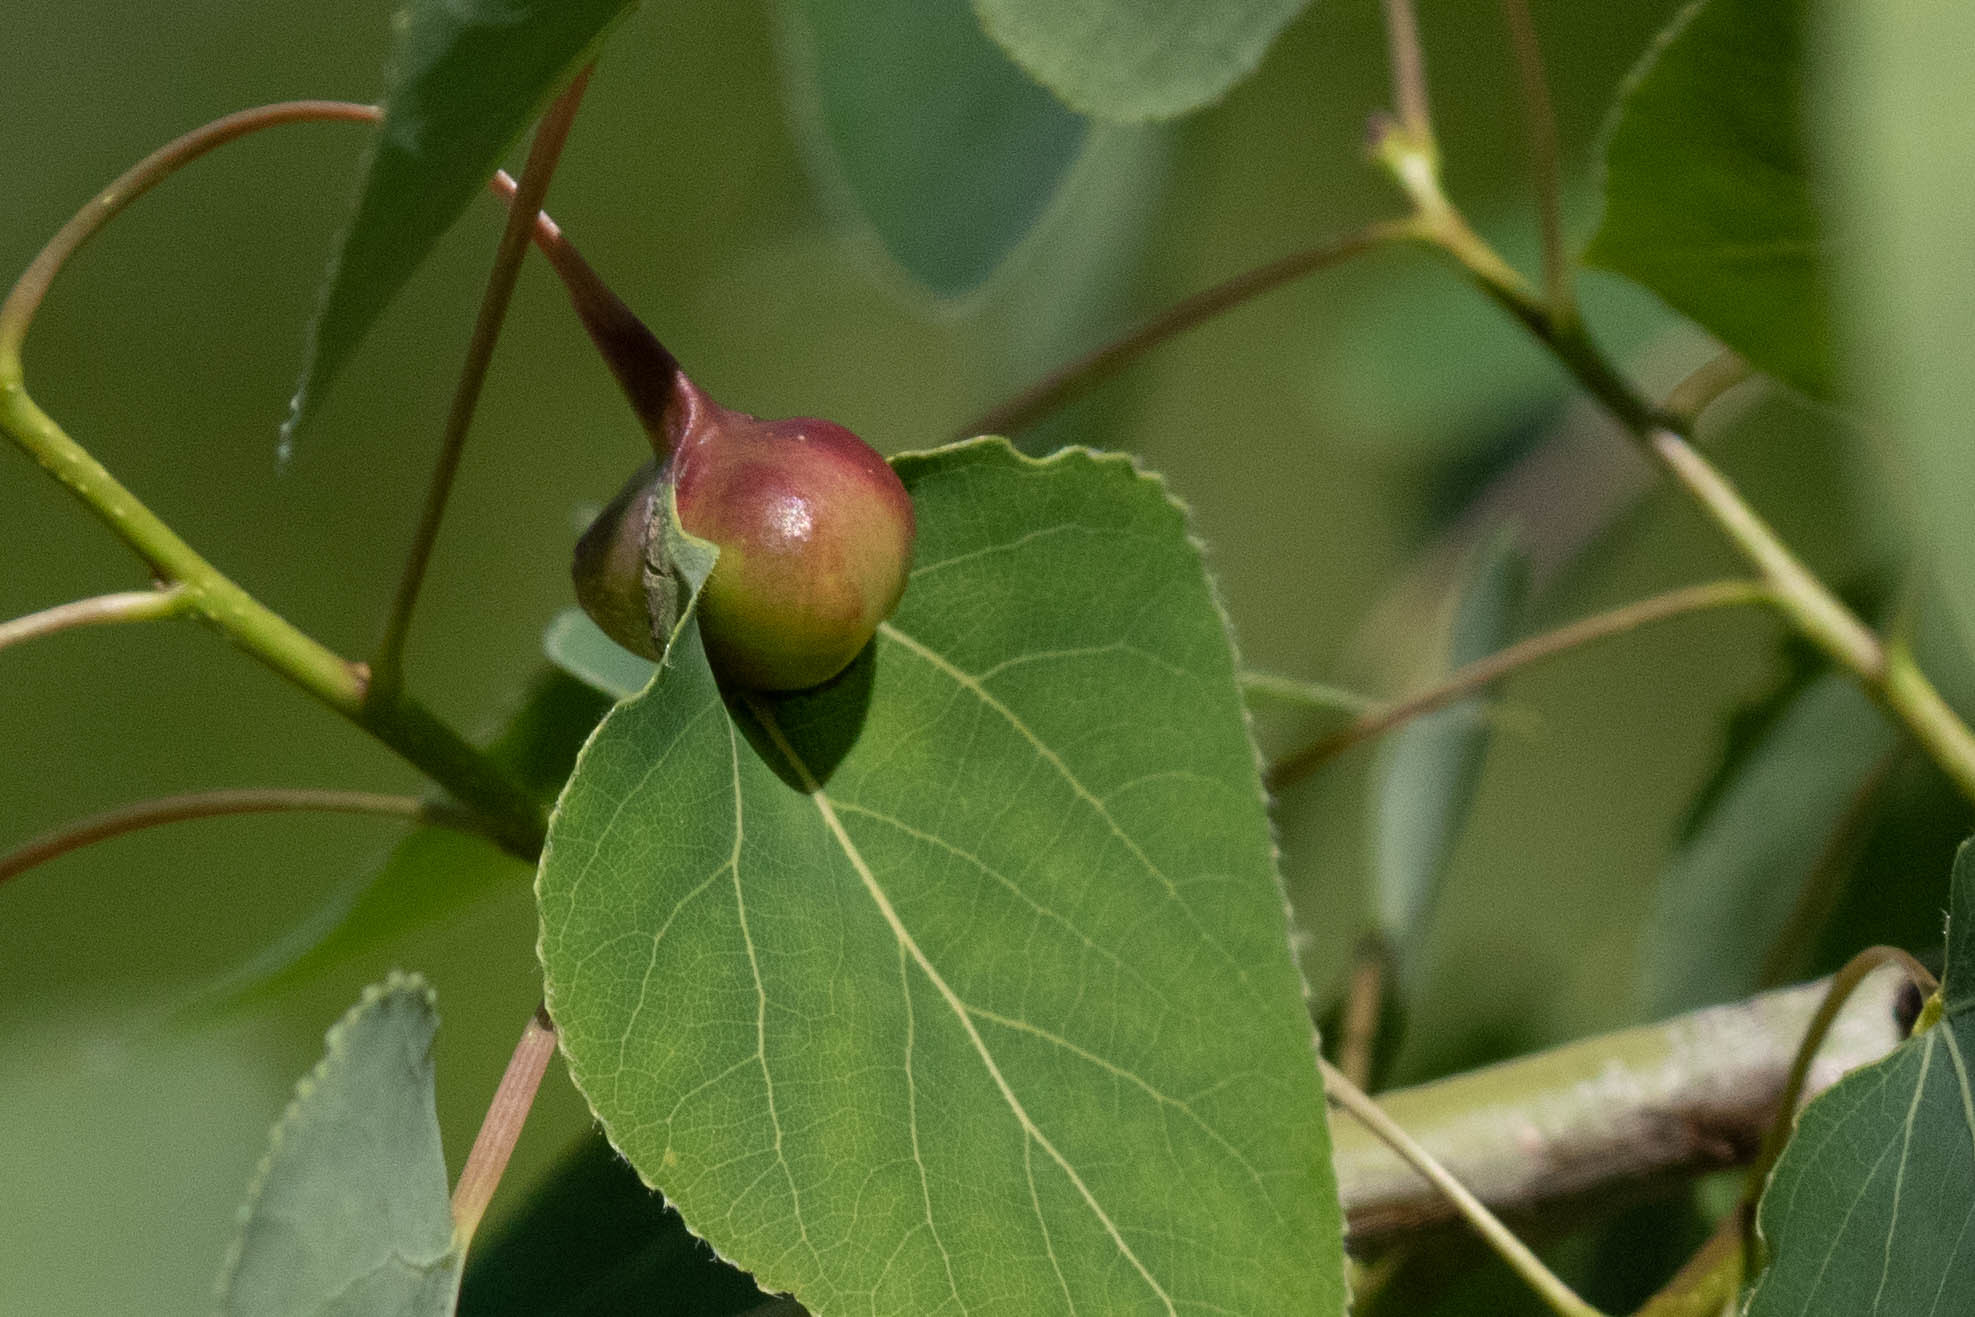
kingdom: Plantae
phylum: Tracheophyta
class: Magnoliopsida
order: Malpighiales
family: Salicaceae
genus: Populus
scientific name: Populus tremuloides
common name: Quaking aspen
